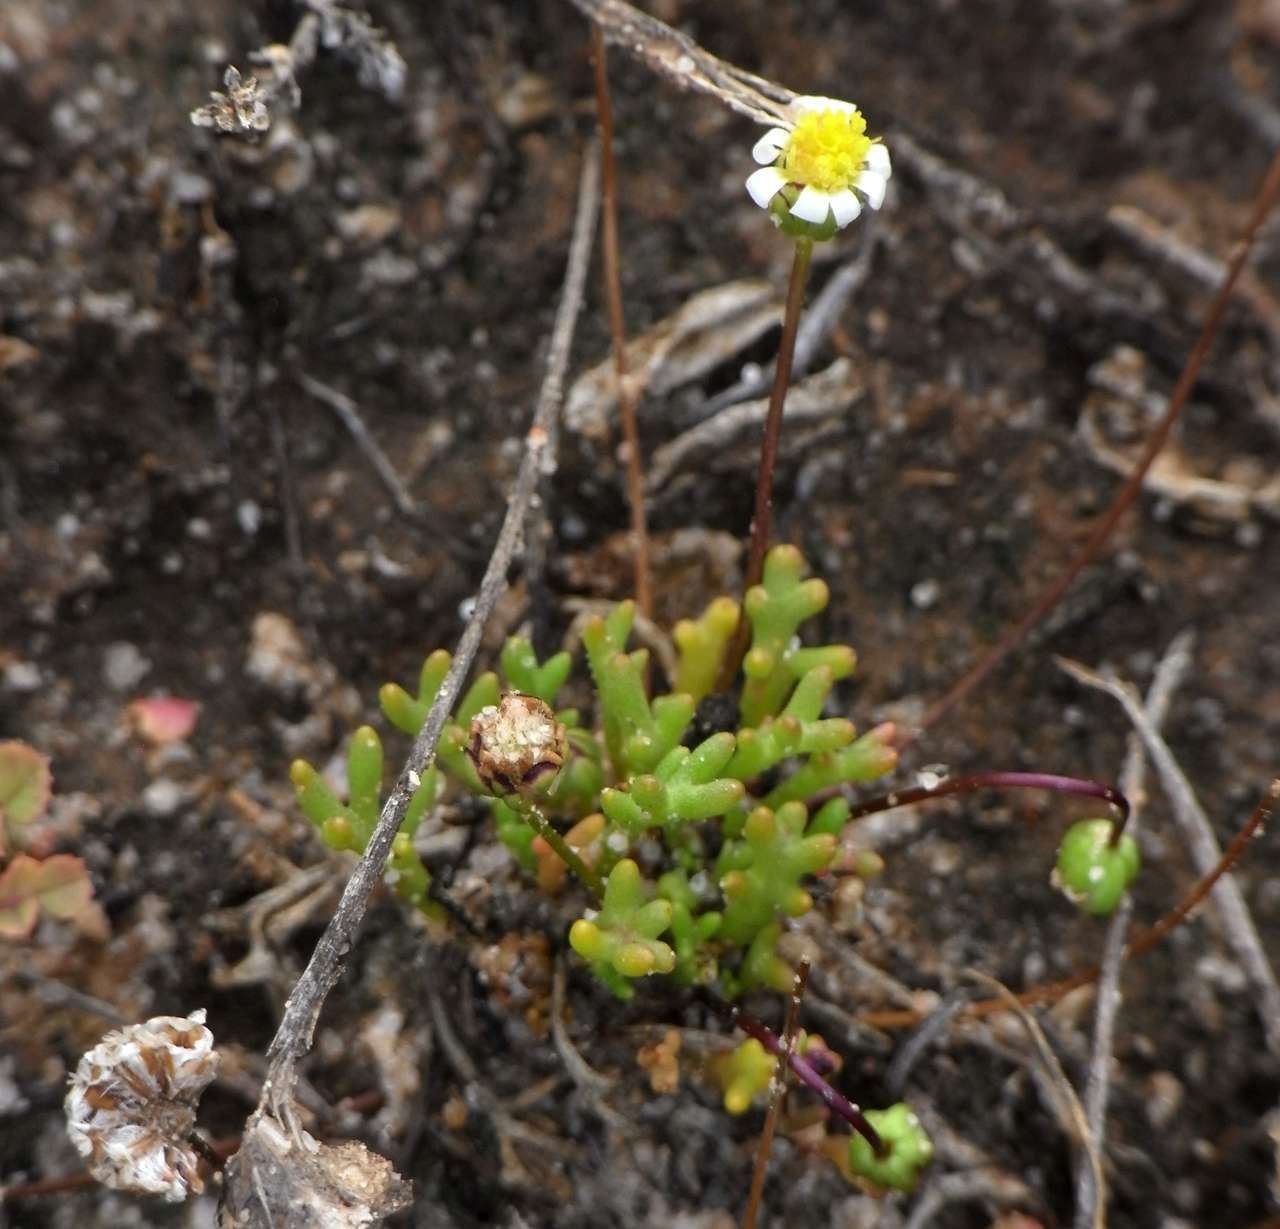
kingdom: Plantae
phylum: Tracheophyta
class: Magnoliopsida
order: Asterales
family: Asteraceae
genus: Brachyscome
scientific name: Brachyscome lineariloba
